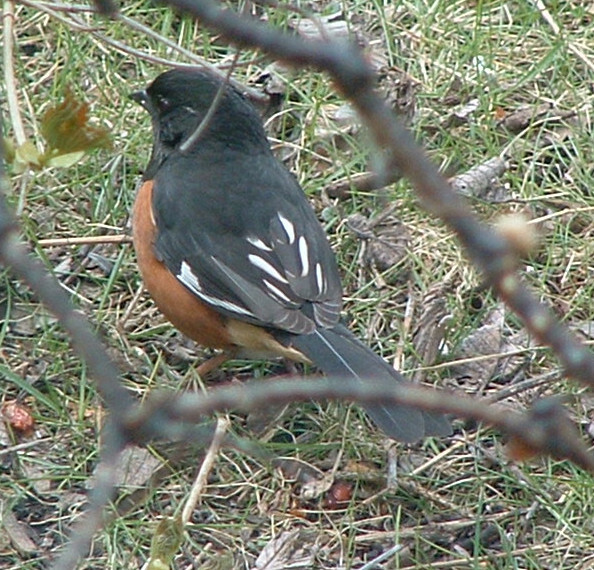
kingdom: Animalia
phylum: Chordata
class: Aves
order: Passeriformes
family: Passerellidae
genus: Pipilo
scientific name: Pipilo erythrophthalmus
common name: Eastern towhee
